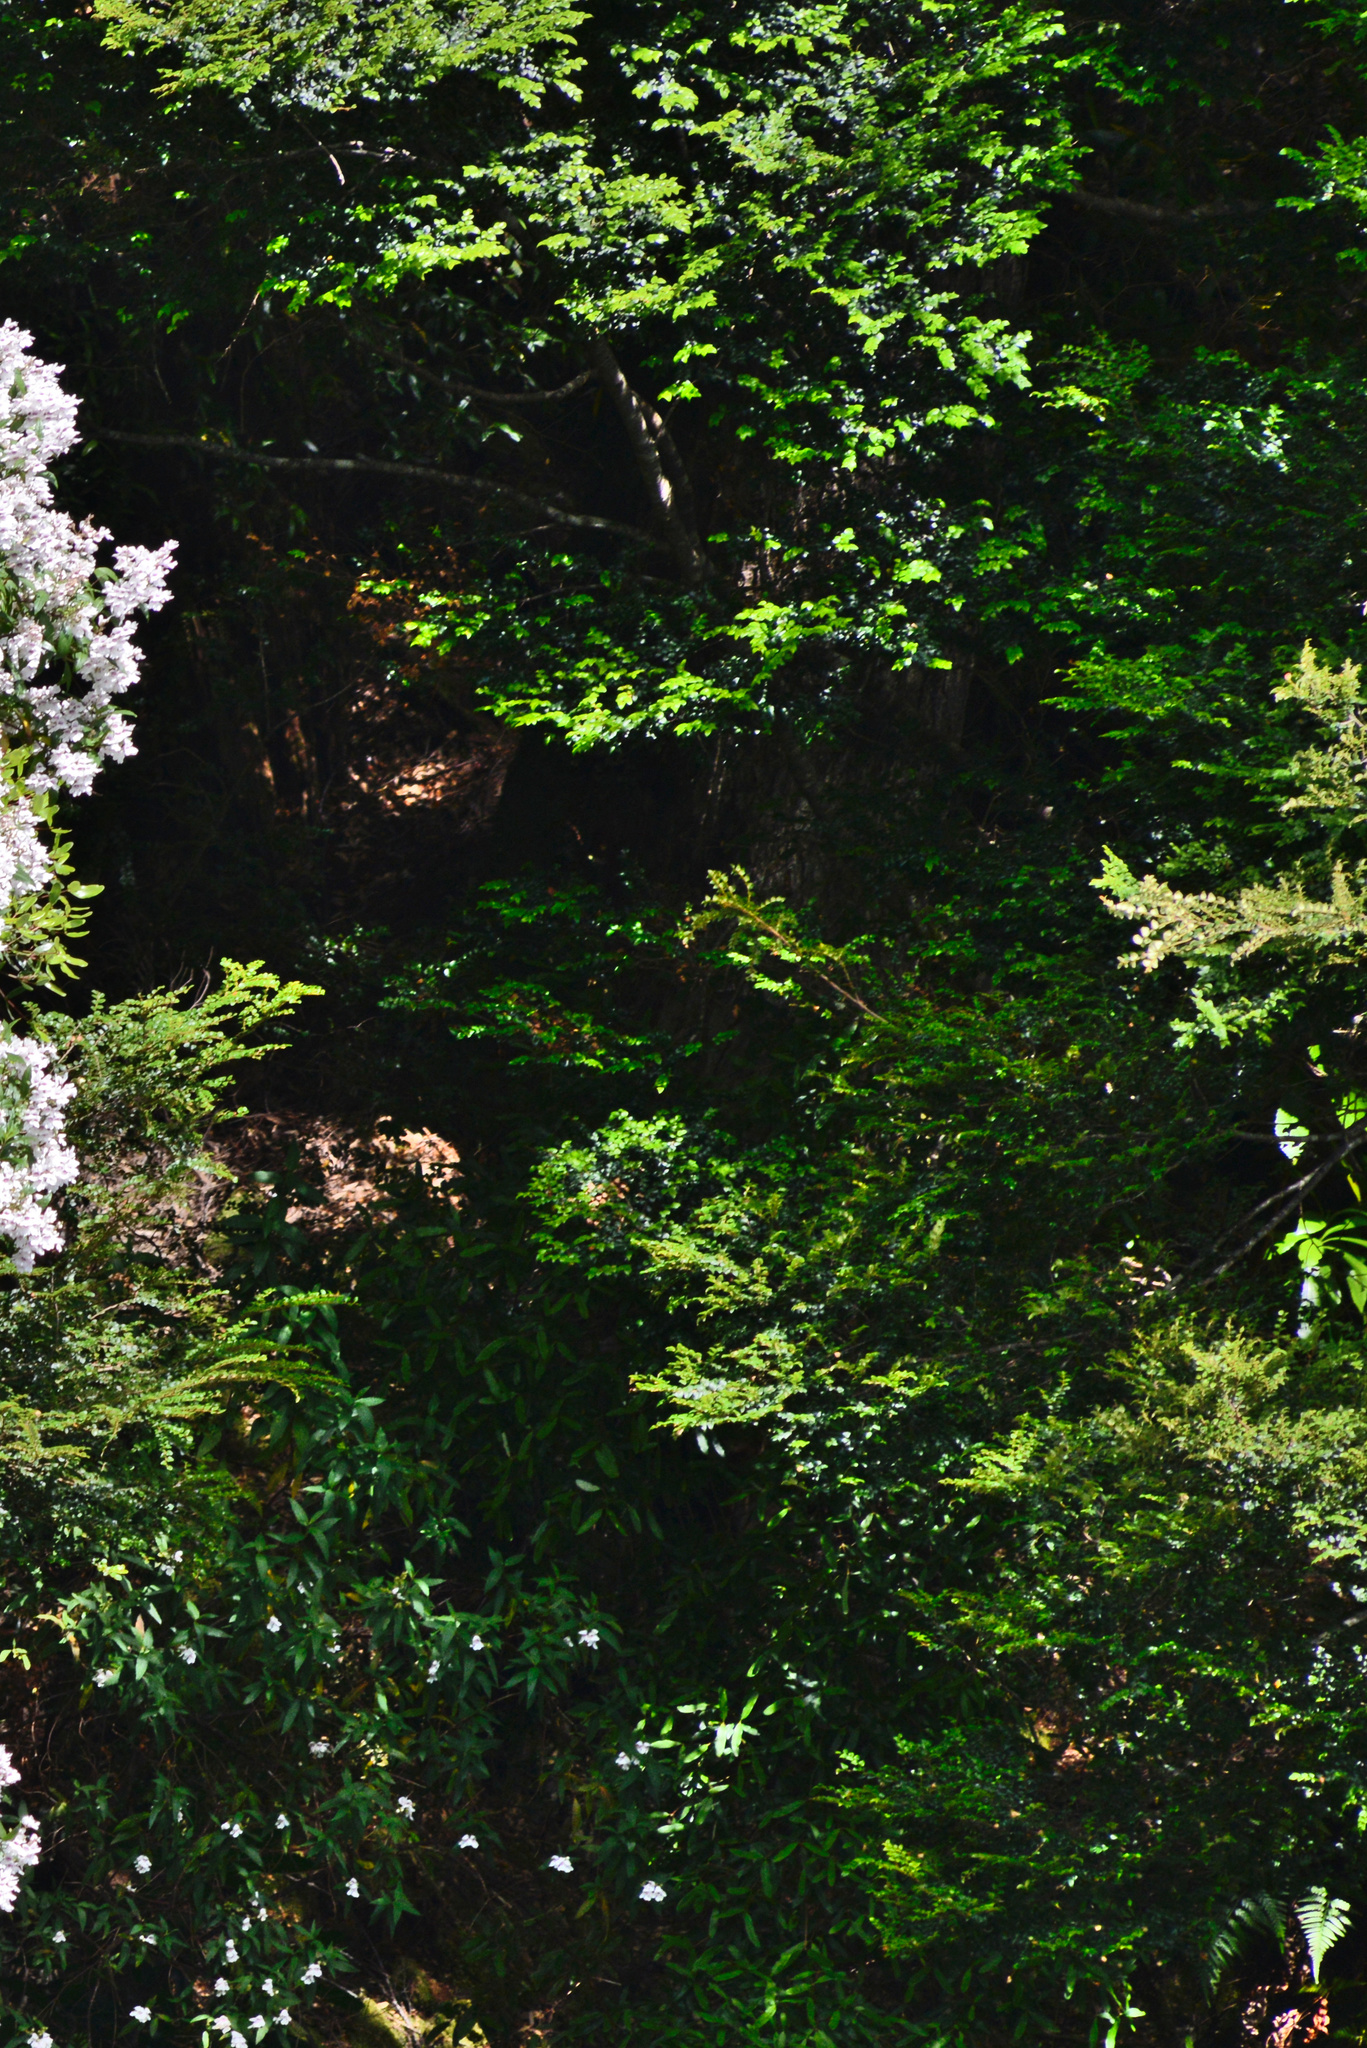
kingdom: Plantae
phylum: Tracheophyta
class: Magnoliopsida
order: Fagales
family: Nothofagaceae
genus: Nothofagus
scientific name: Nothofagus cunninghamii
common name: Myrtle beech
